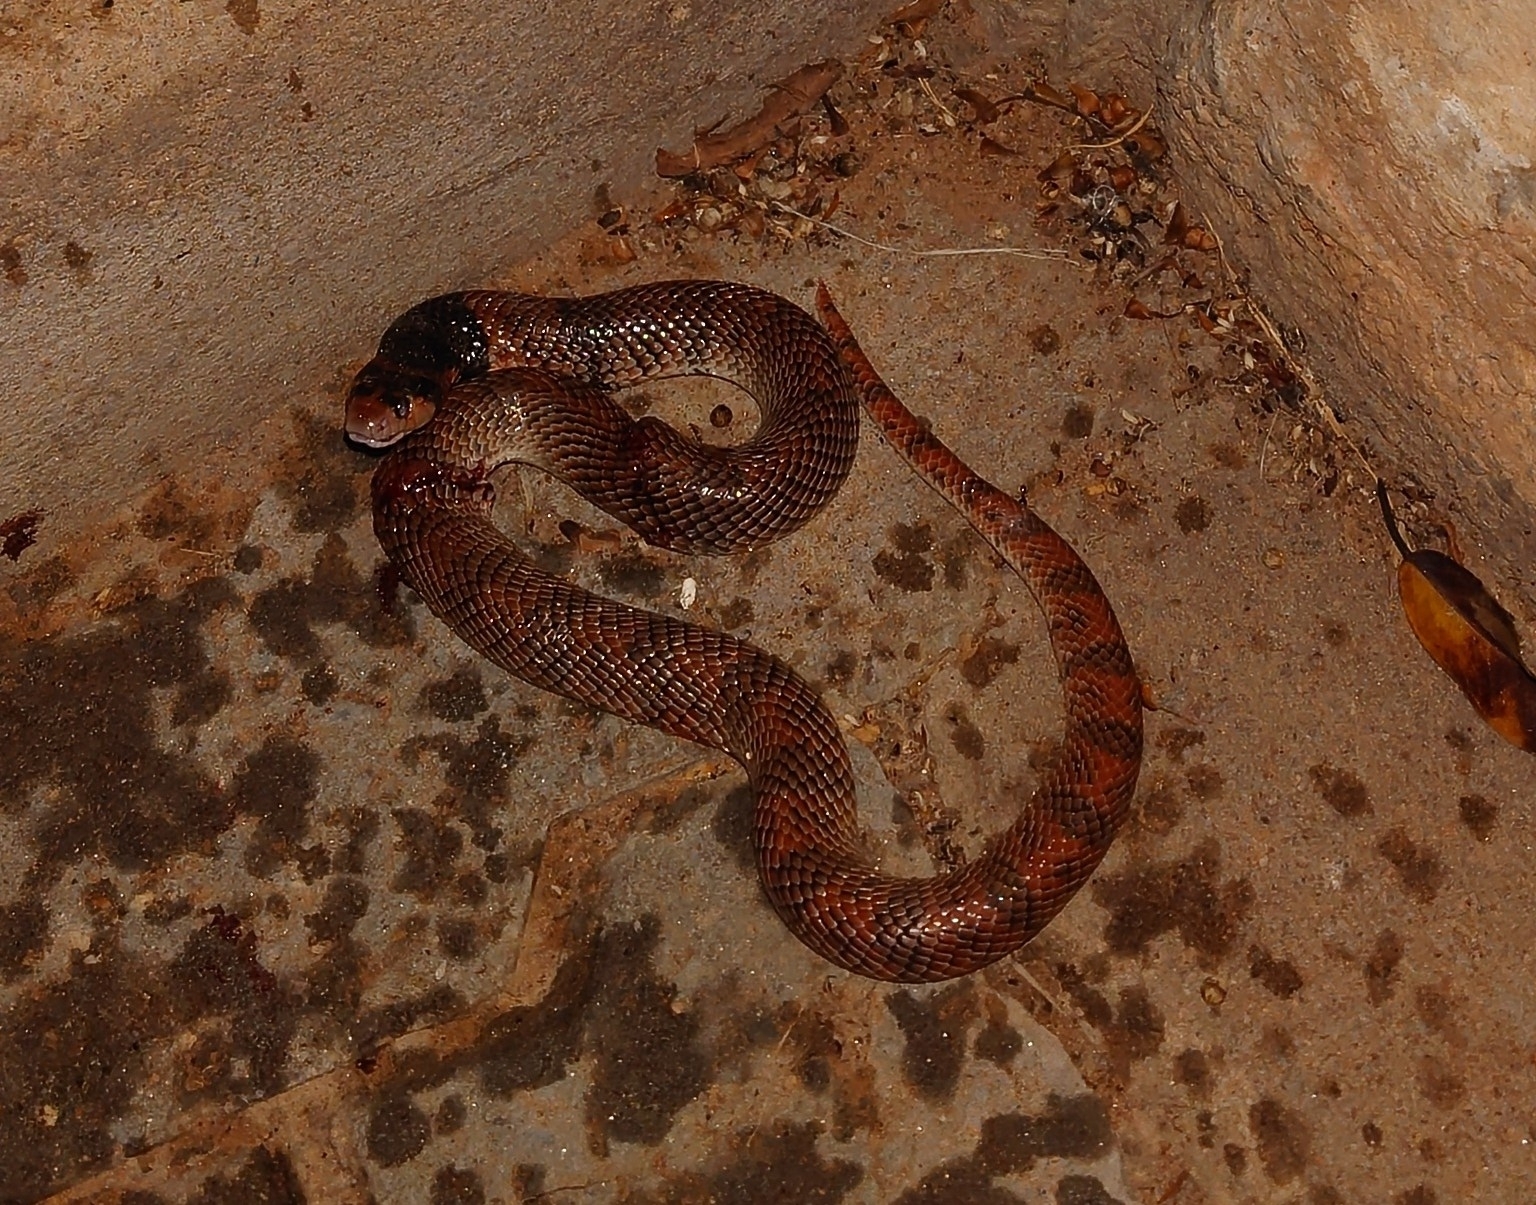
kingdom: Animalia
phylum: Chordata
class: Squamata
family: Elapidae
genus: Aspidelaps
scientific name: Aspidelaps lubricus
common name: Coral shield cobra
